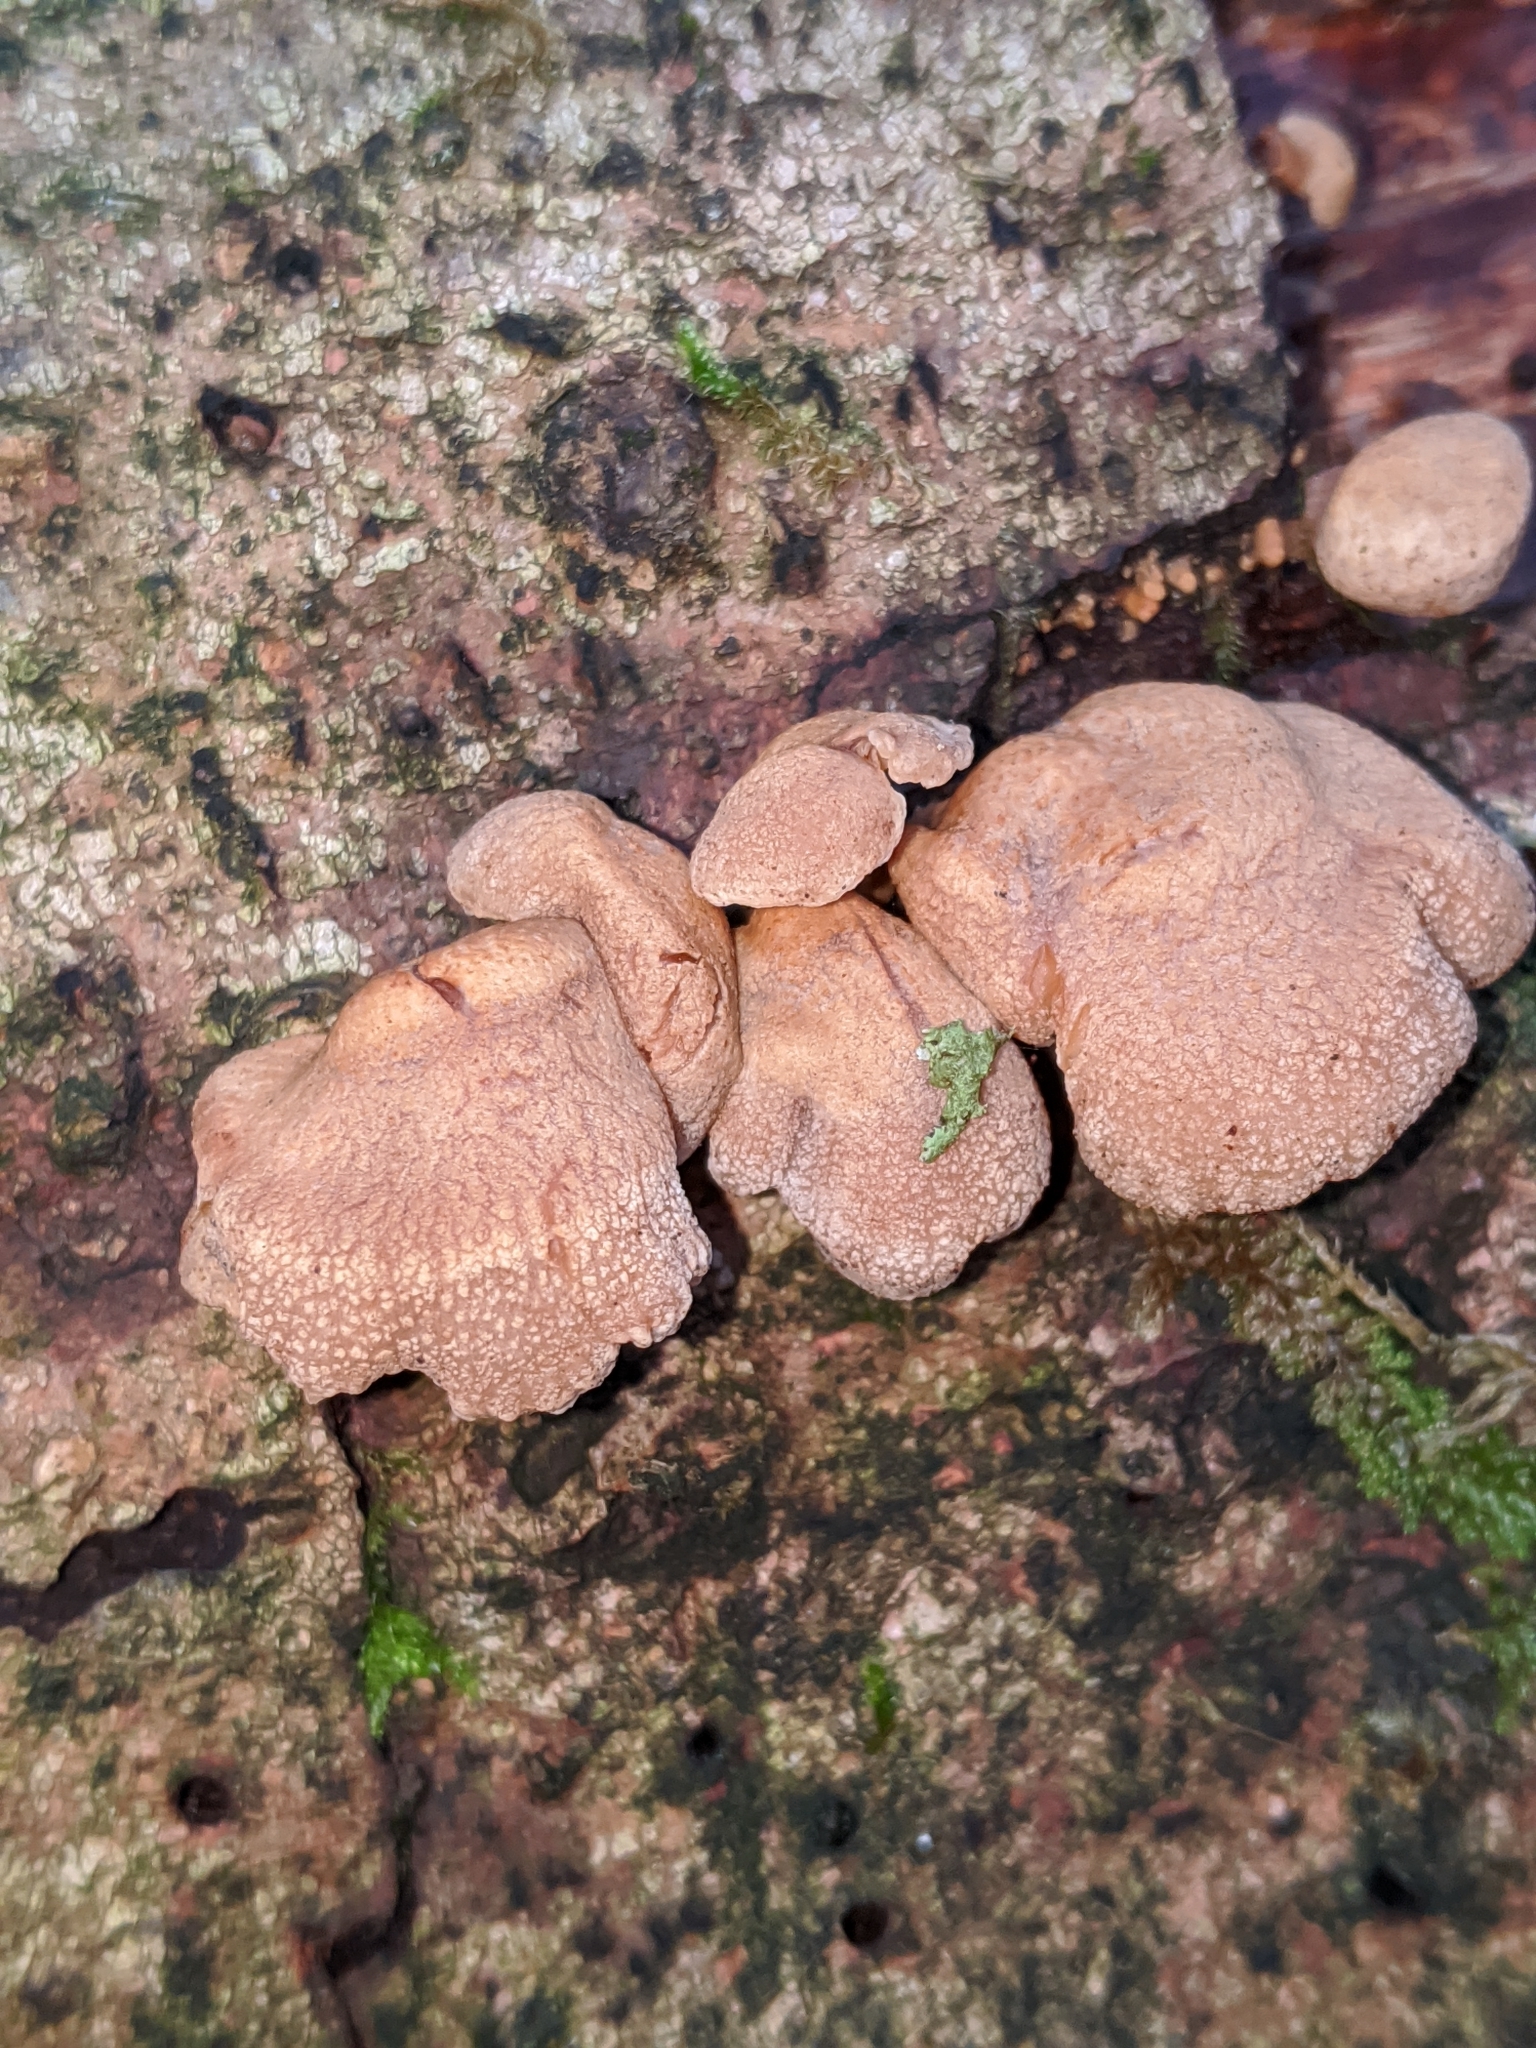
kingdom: Fungi
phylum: Basidiomycota
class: Agaricomycetes
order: Agaricales
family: Mycenaceae
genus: Panellus
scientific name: Panellus stipticus
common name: Bitter oysterling
